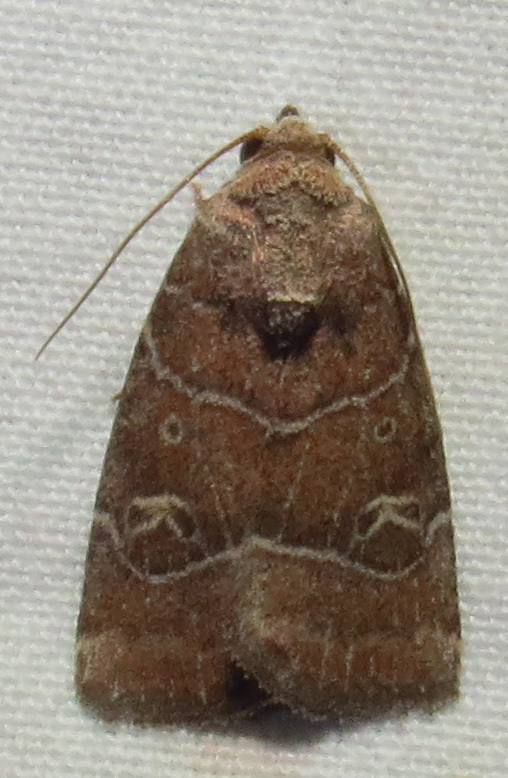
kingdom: Animalia
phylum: Arthropoda
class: Insecta
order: Lepidoptera
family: Noctuidae
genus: Elaphria
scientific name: Elaphria grata
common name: Grateful midget moth
